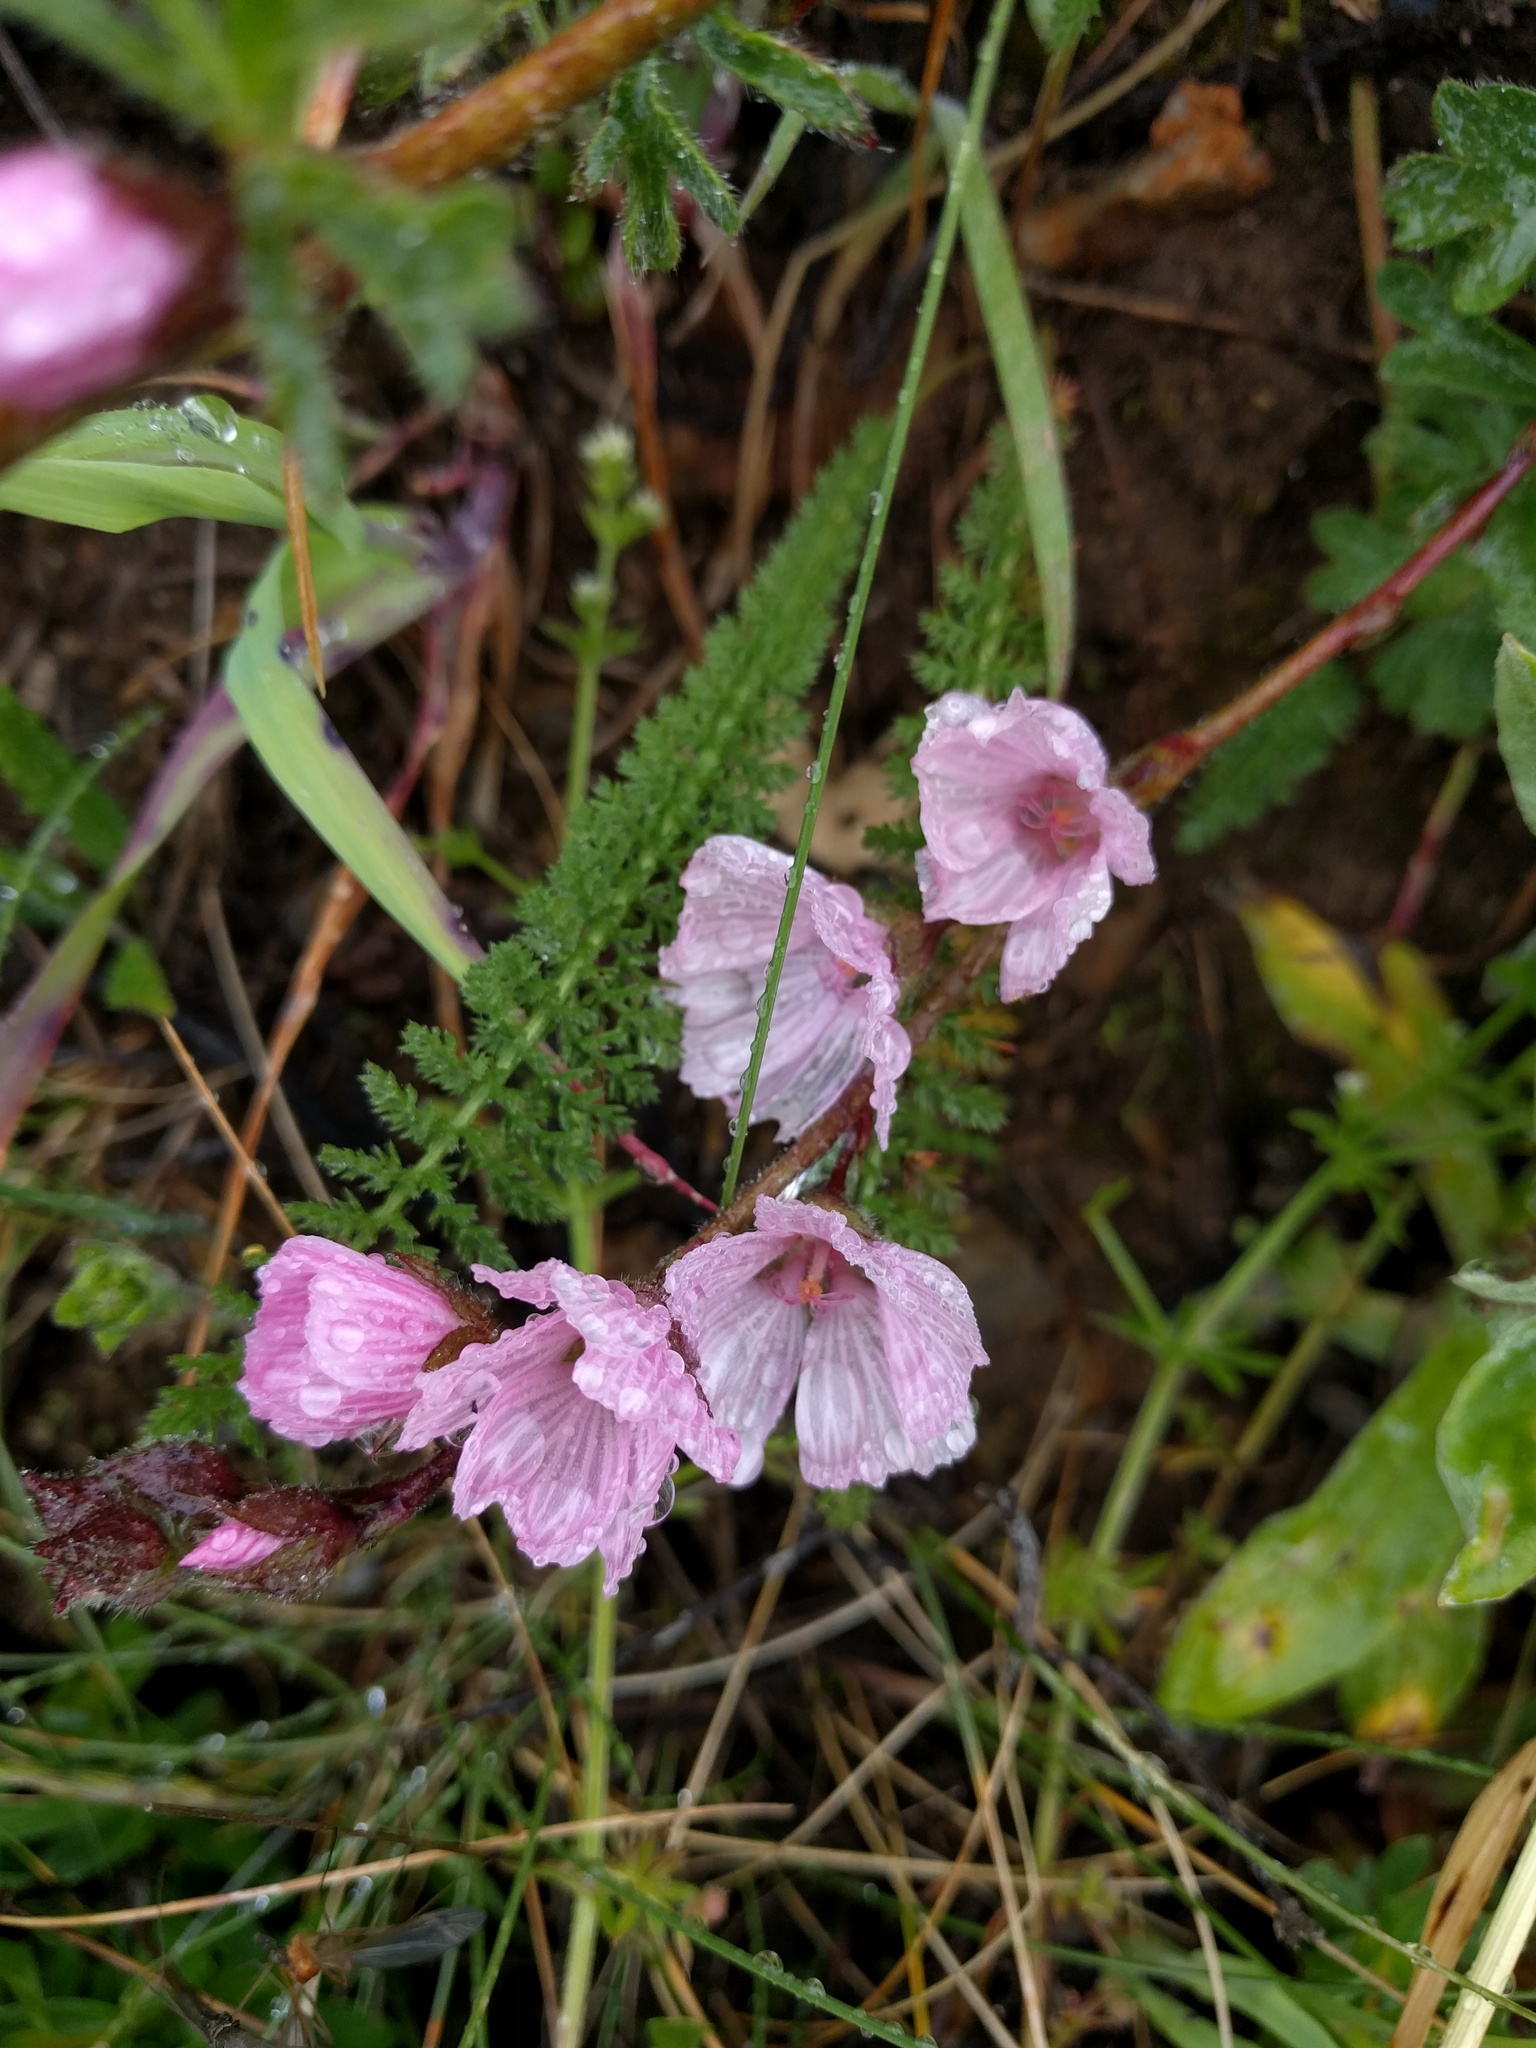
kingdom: Plantae
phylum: Tracheophyta
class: Magnoliopsida
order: Malvales
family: Malvaceae
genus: Sidalcea
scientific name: Sidalcea malviflora
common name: Greek mallow
